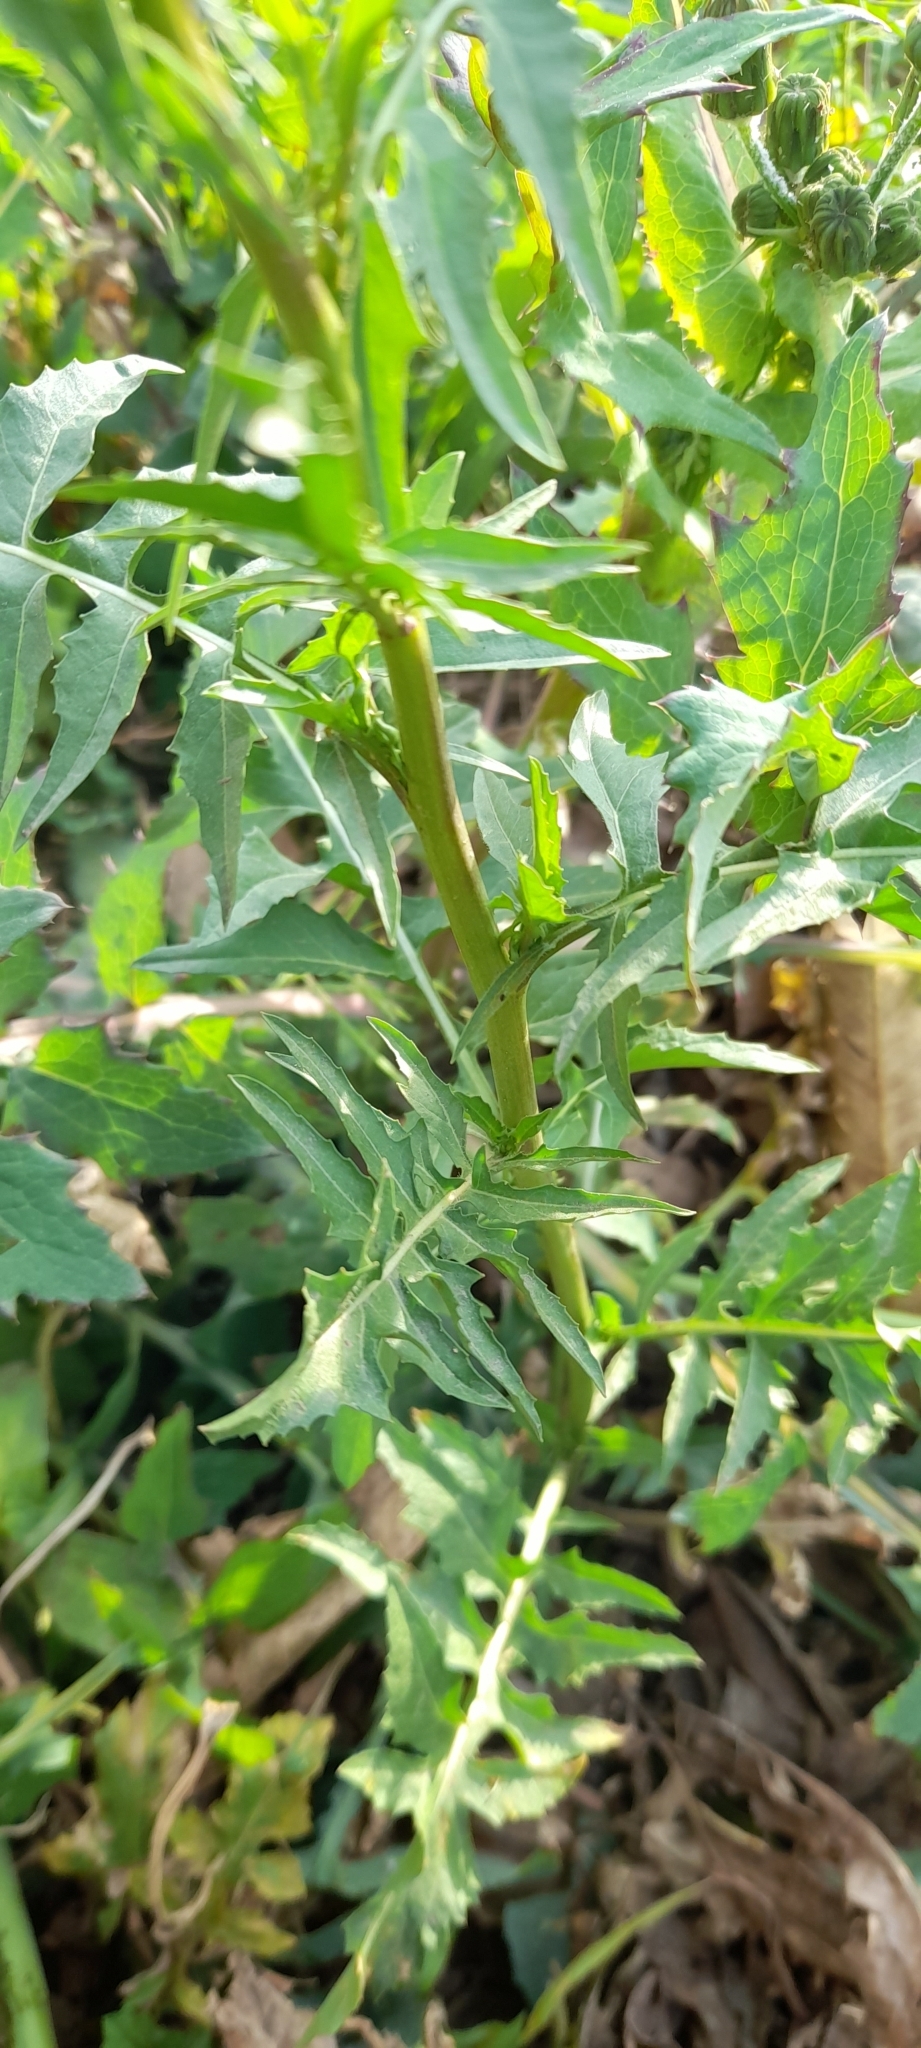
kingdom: Plantae
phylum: Tracheophyta
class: Magnoliopsida
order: Brassicales
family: Brassicaceae
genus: Sisymbrium
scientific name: Sisymbrium irio
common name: London rocket
